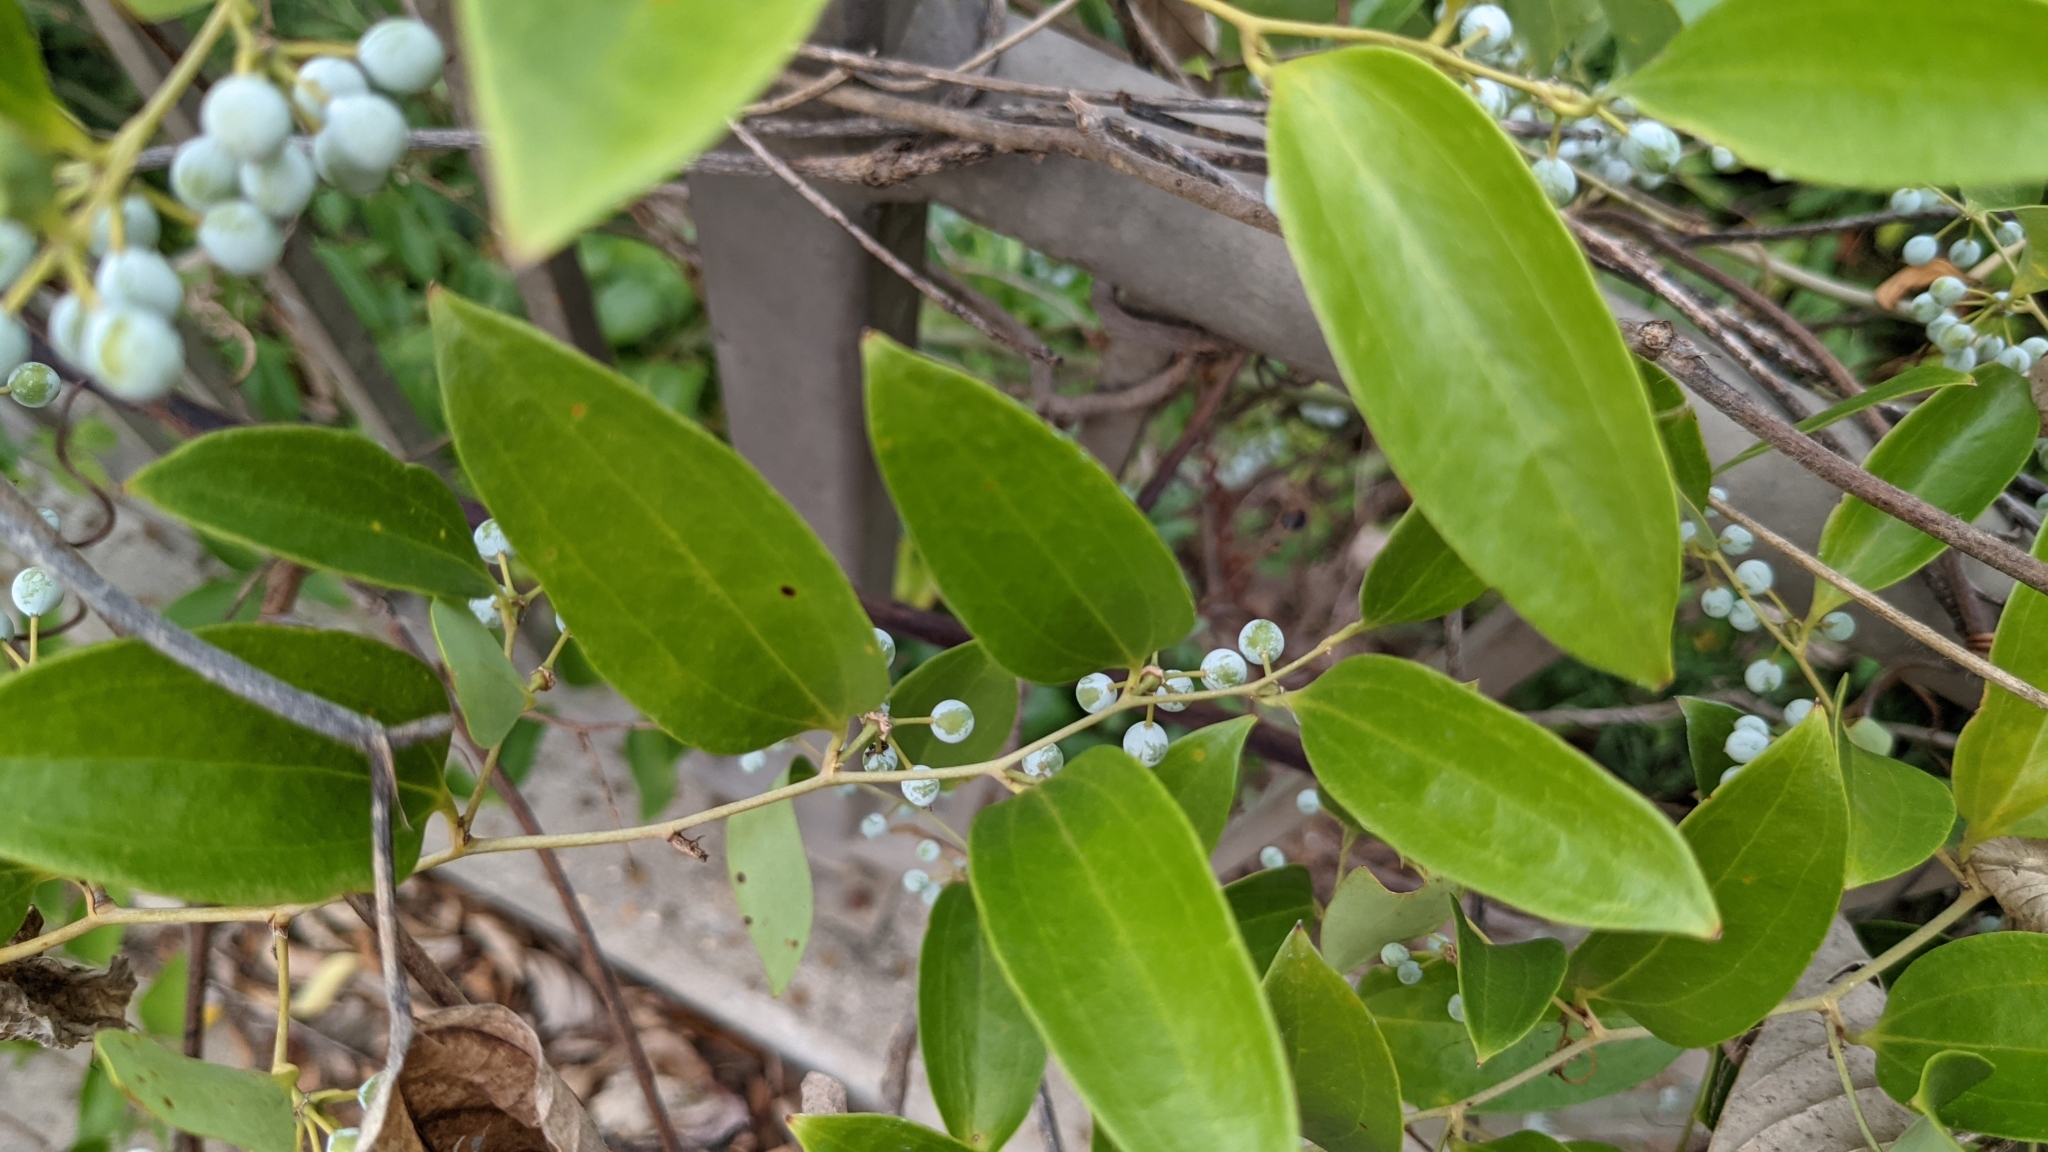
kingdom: Plantae
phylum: Tracheophyta
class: Liliopsida
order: Liliales
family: Smilacaceae
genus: Smilax
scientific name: Smilax laurifolia
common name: Bamboovine
